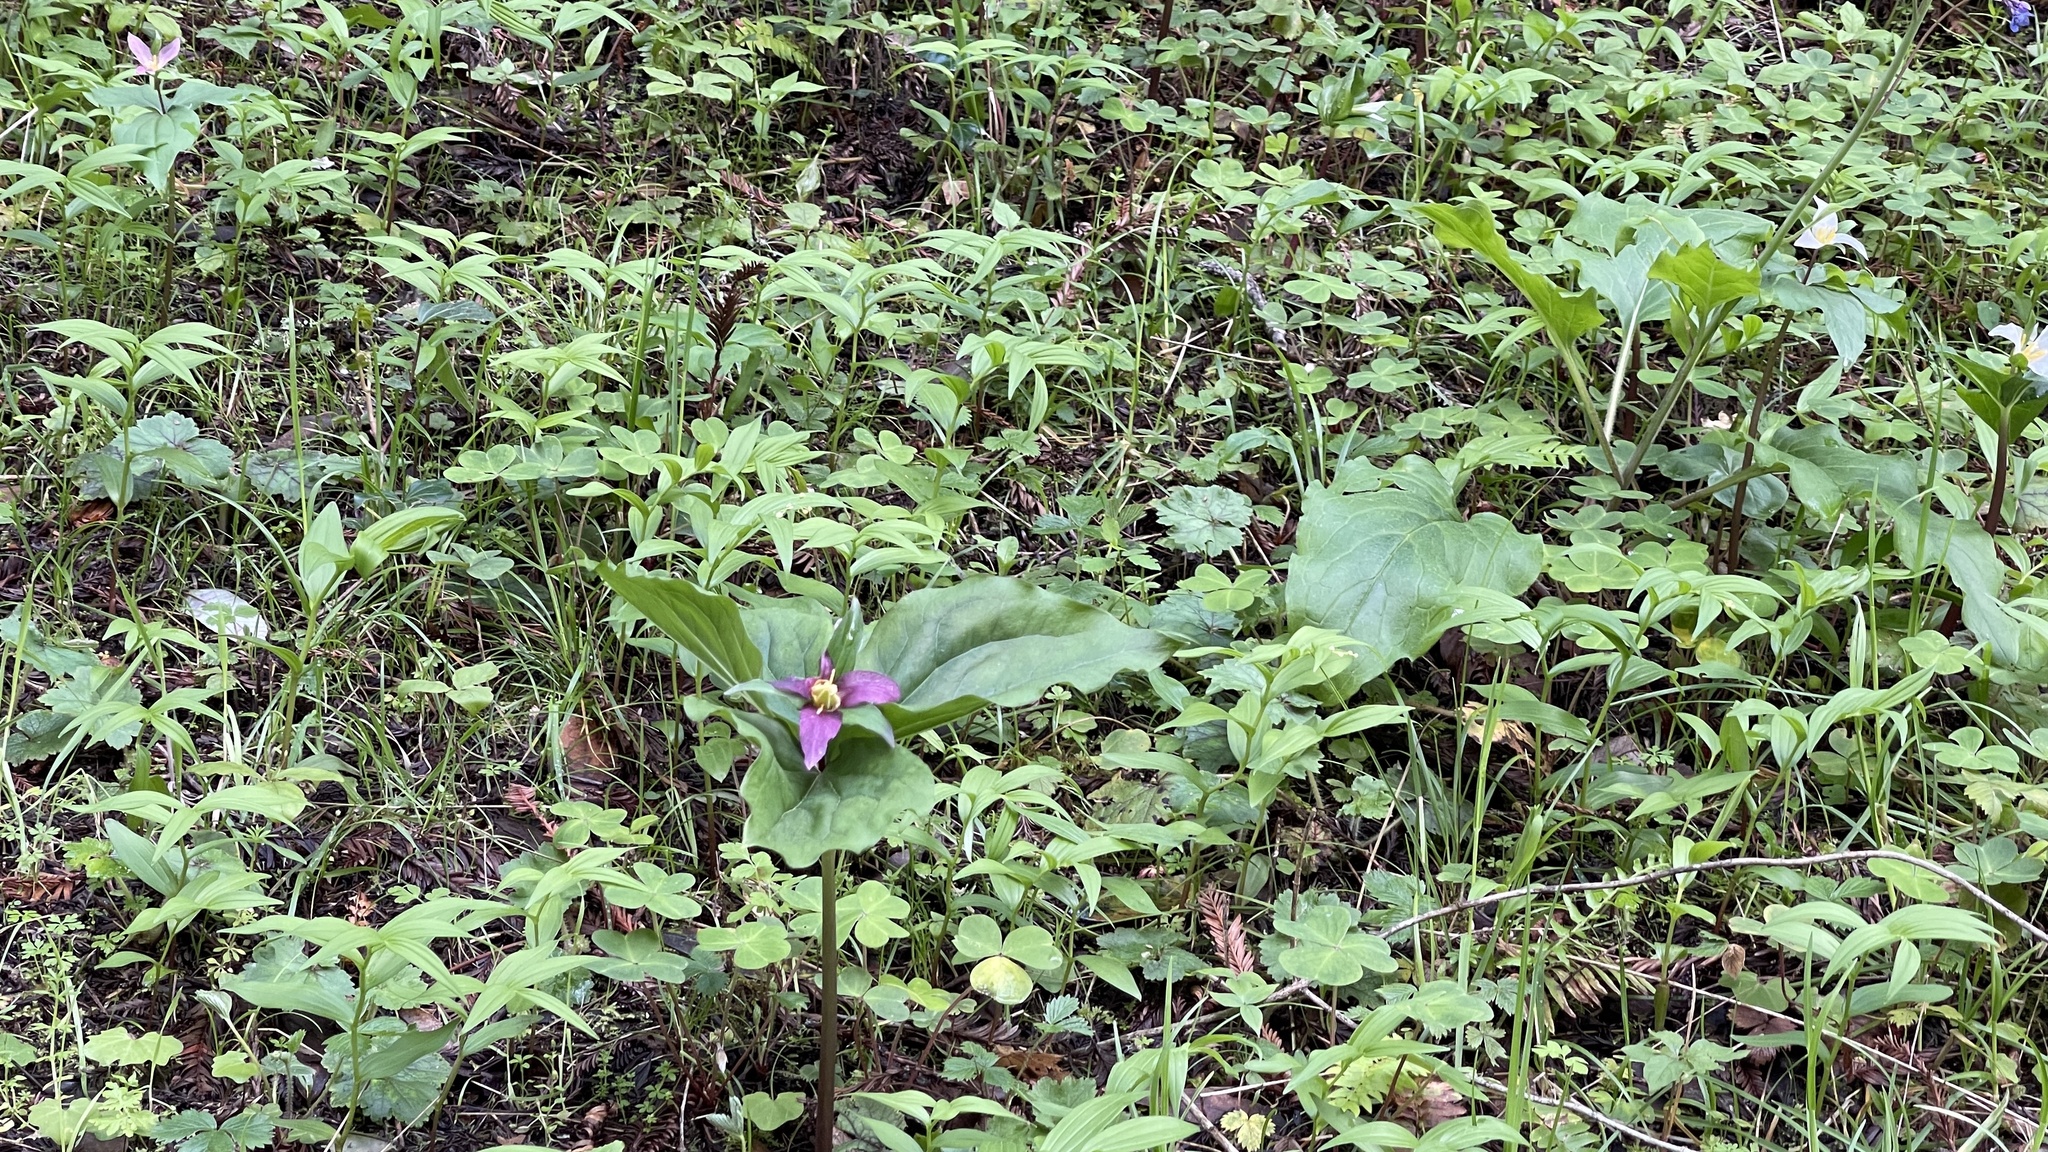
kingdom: Plantae
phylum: Tracheophyta
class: Liliopsida
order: Liliales
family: Melanthiaceae
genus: Trillium
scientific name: Trillium ovatum
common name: Pacific trillium
